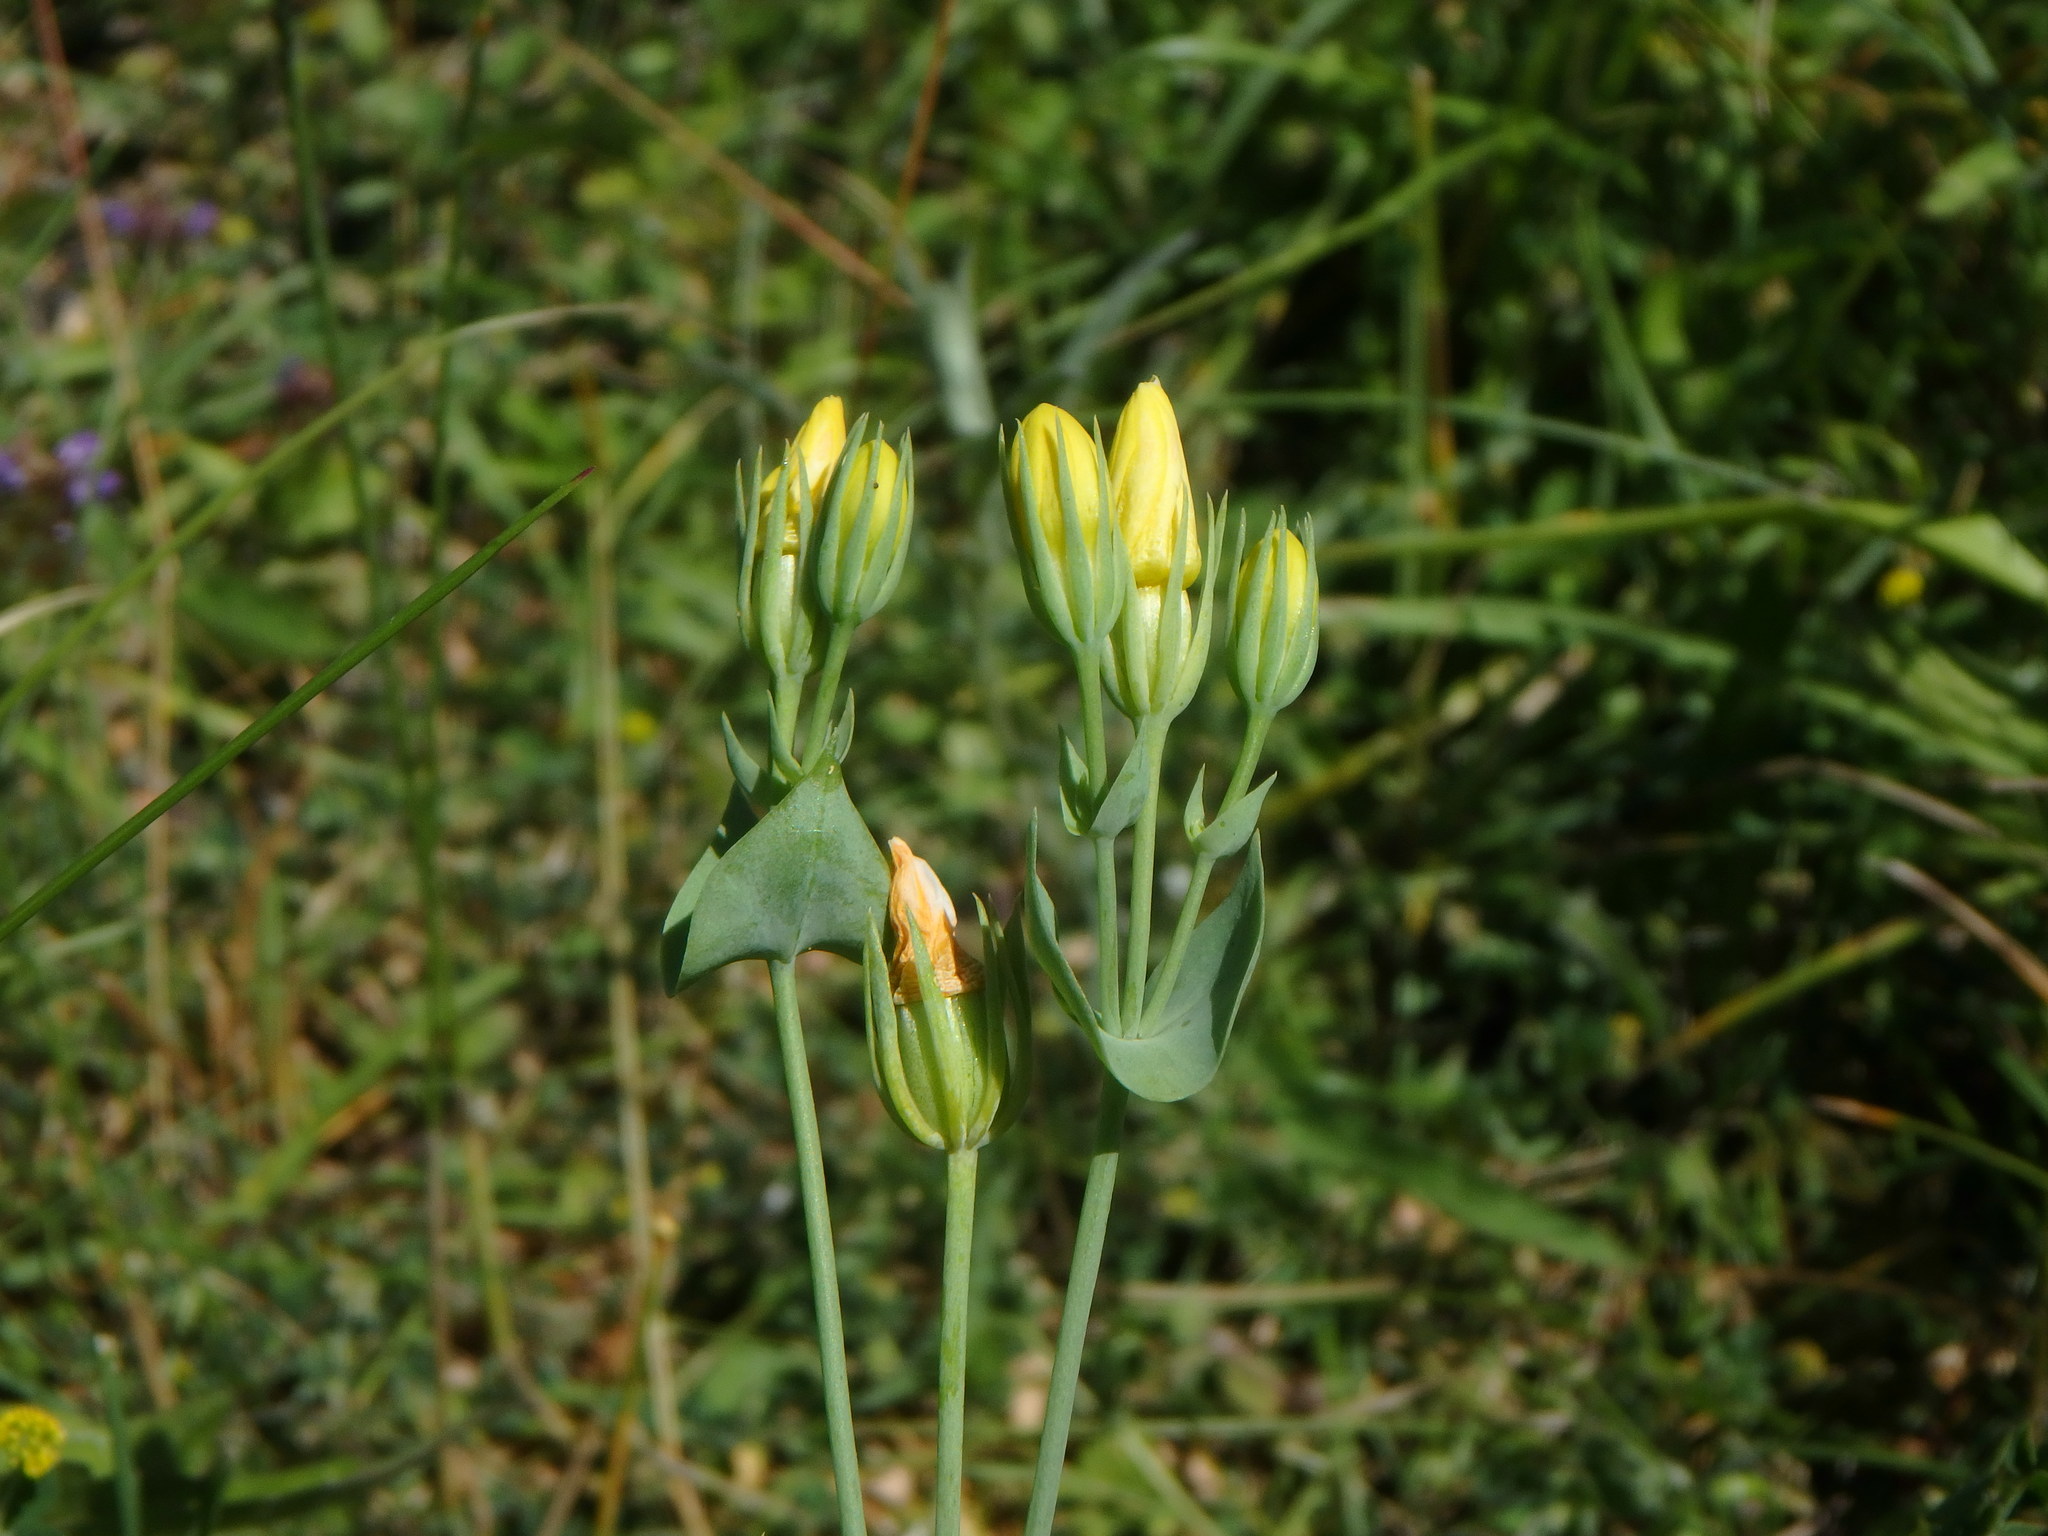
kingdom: Plantae
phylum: Tracheophyta
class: Magnoliopsida
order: Gentianales
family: Gentianaceae
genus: Blackstonia
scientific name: Blackstonia perfoliata
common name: Yellow-wort
